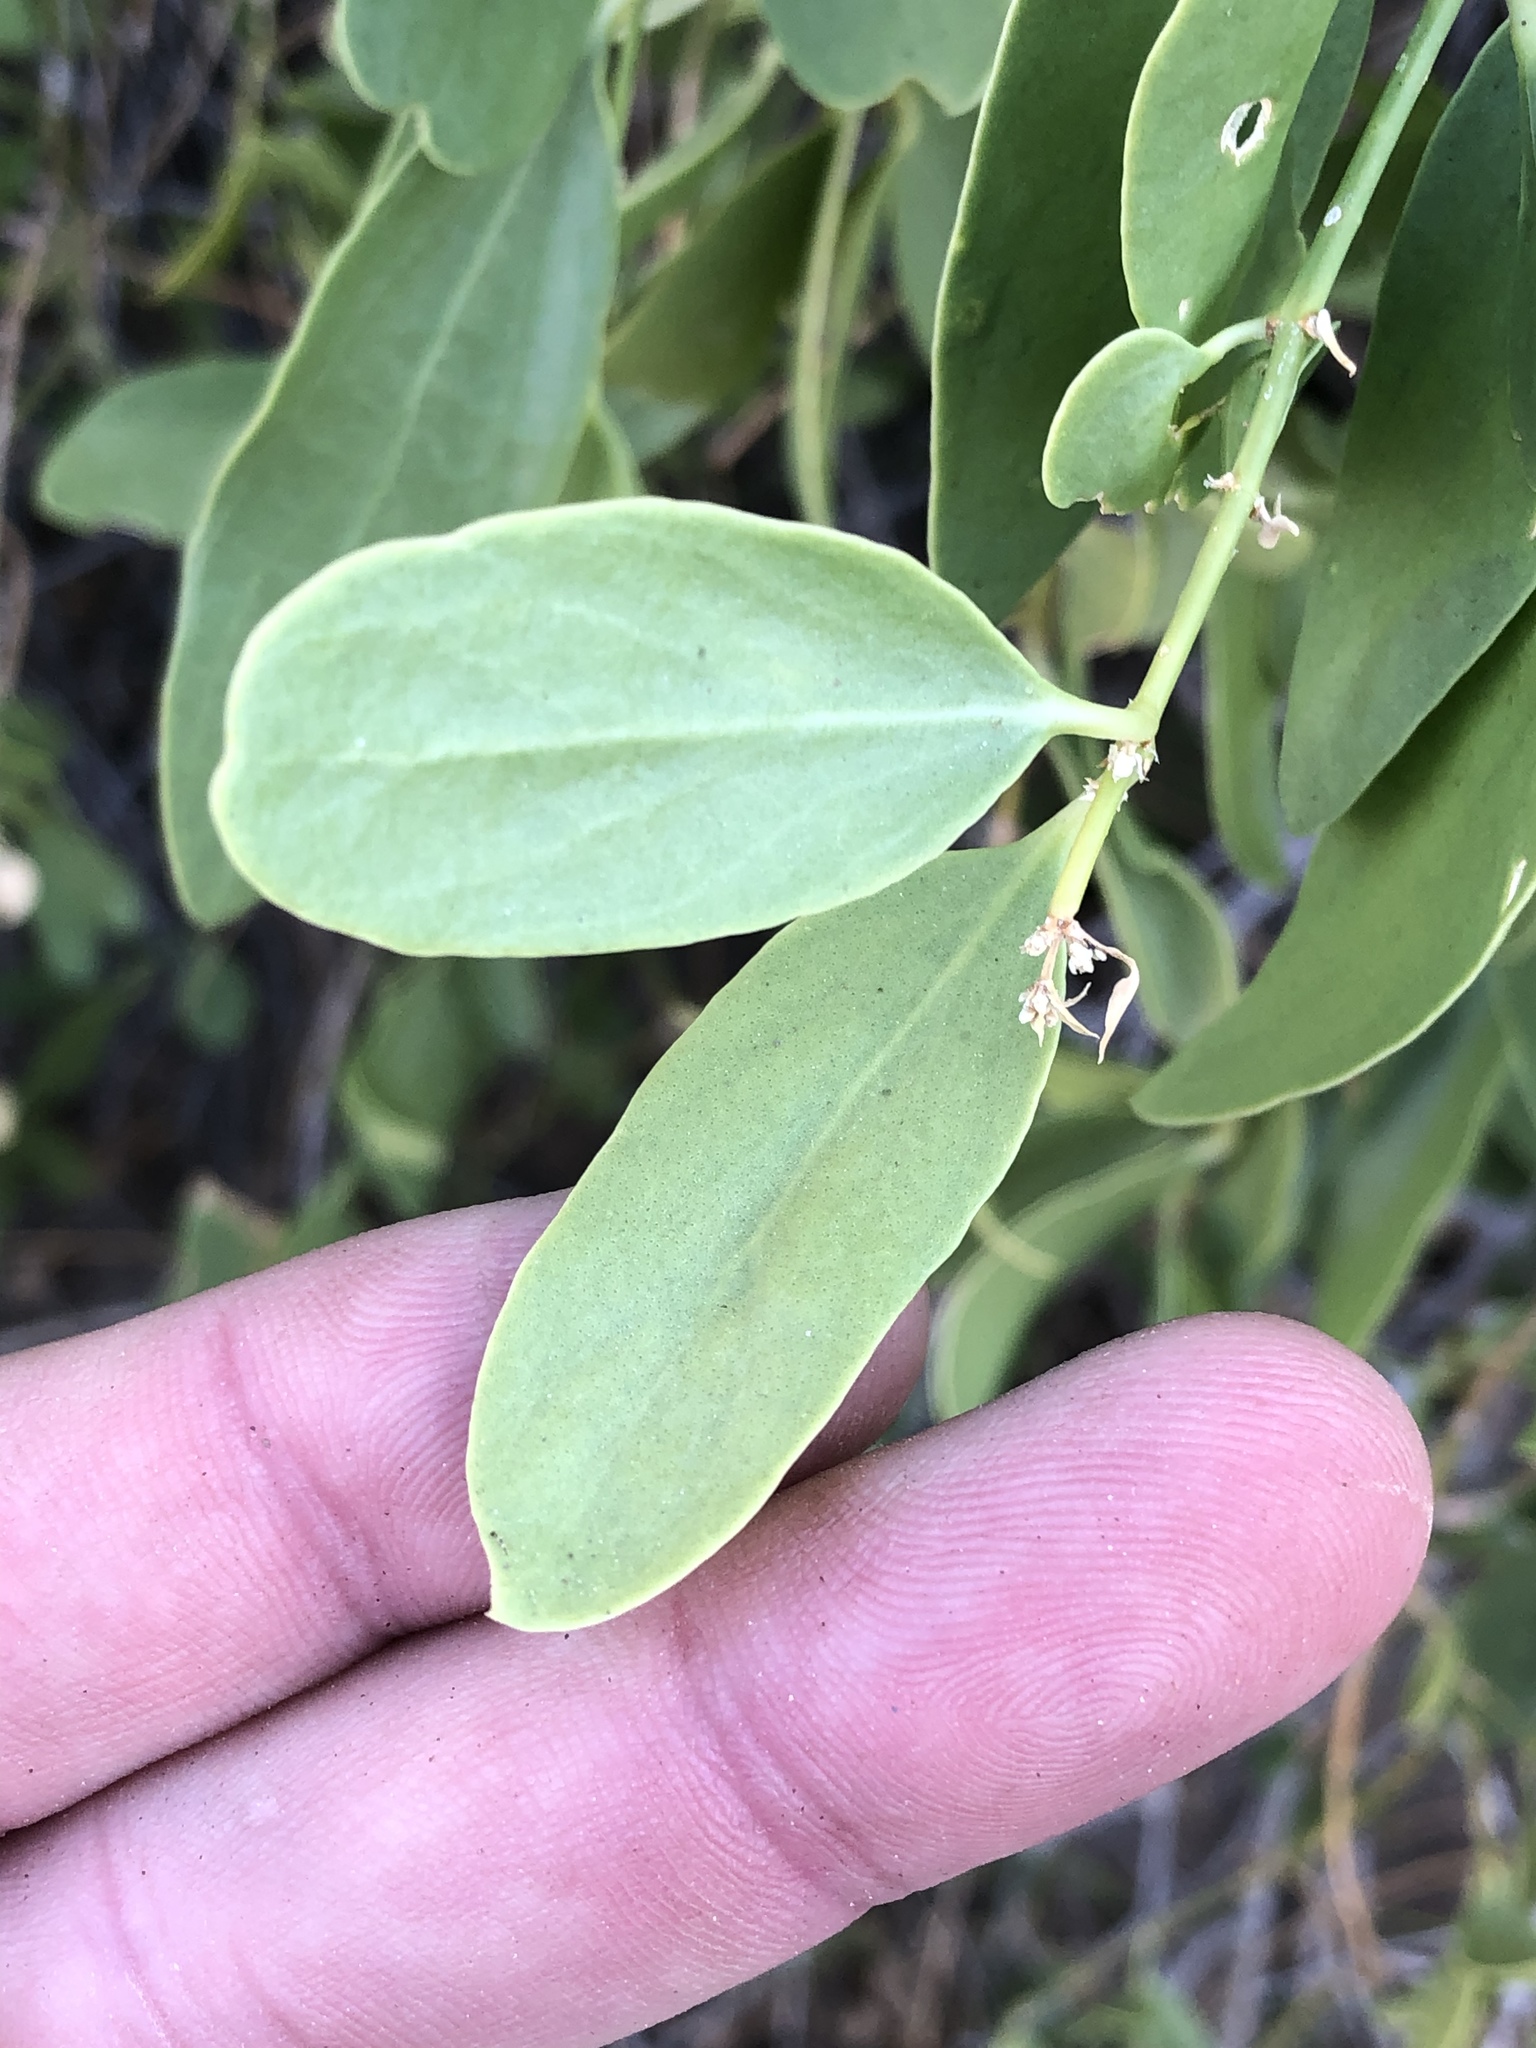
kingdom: Plantae
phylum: Tracheophyta
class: Magnoliopsida
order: Brassicales
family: Salvadoraceae
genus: Salvadora
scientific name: Salvadora persica
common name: Toothbrushtree
